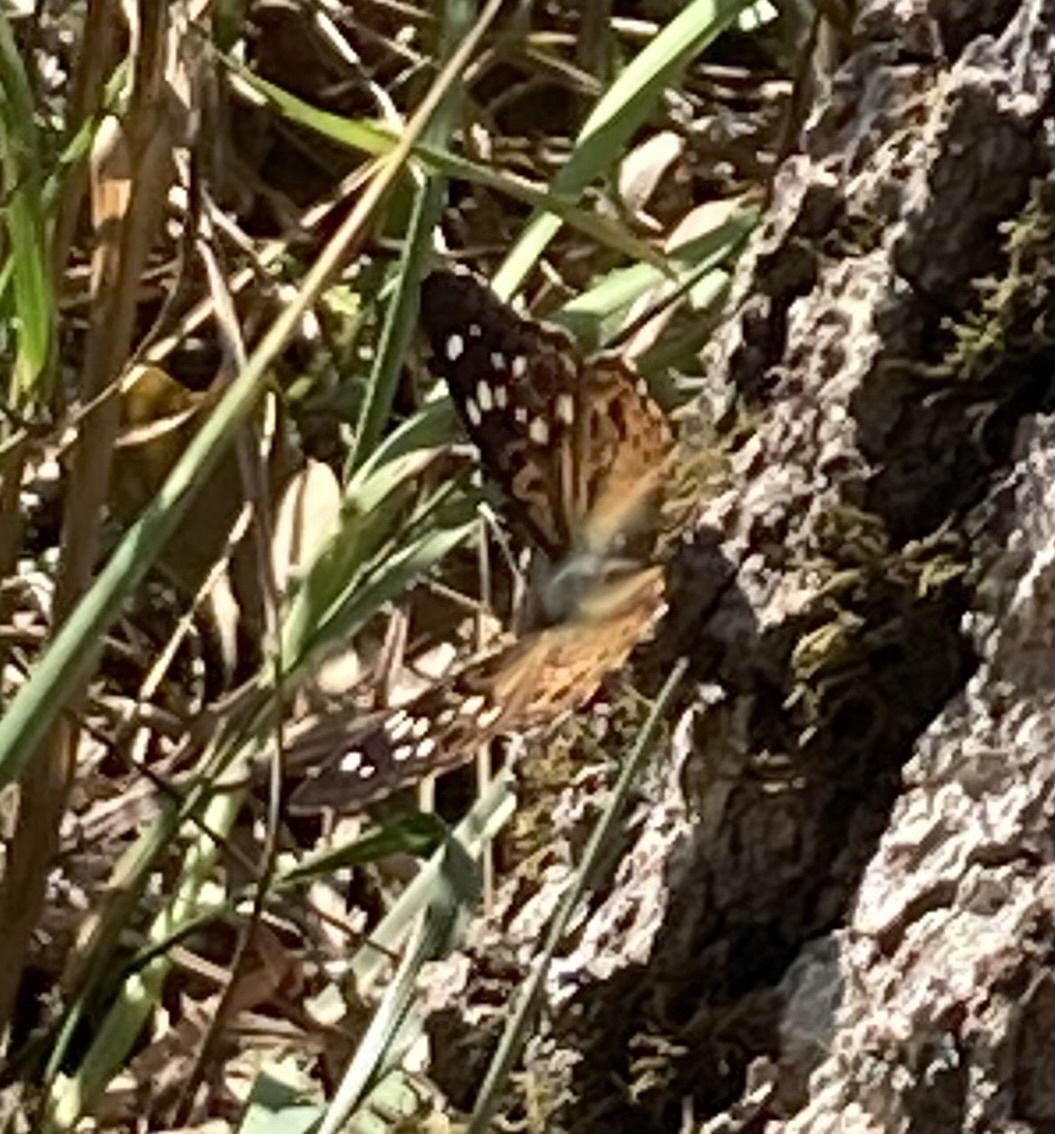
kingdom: Animalia
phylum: Arthropoda
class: Insecta
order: Lepidoptera
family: Nymphalidae
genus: Asterocampa
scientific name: Asterocampa celtis
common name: Hackberry emperor
